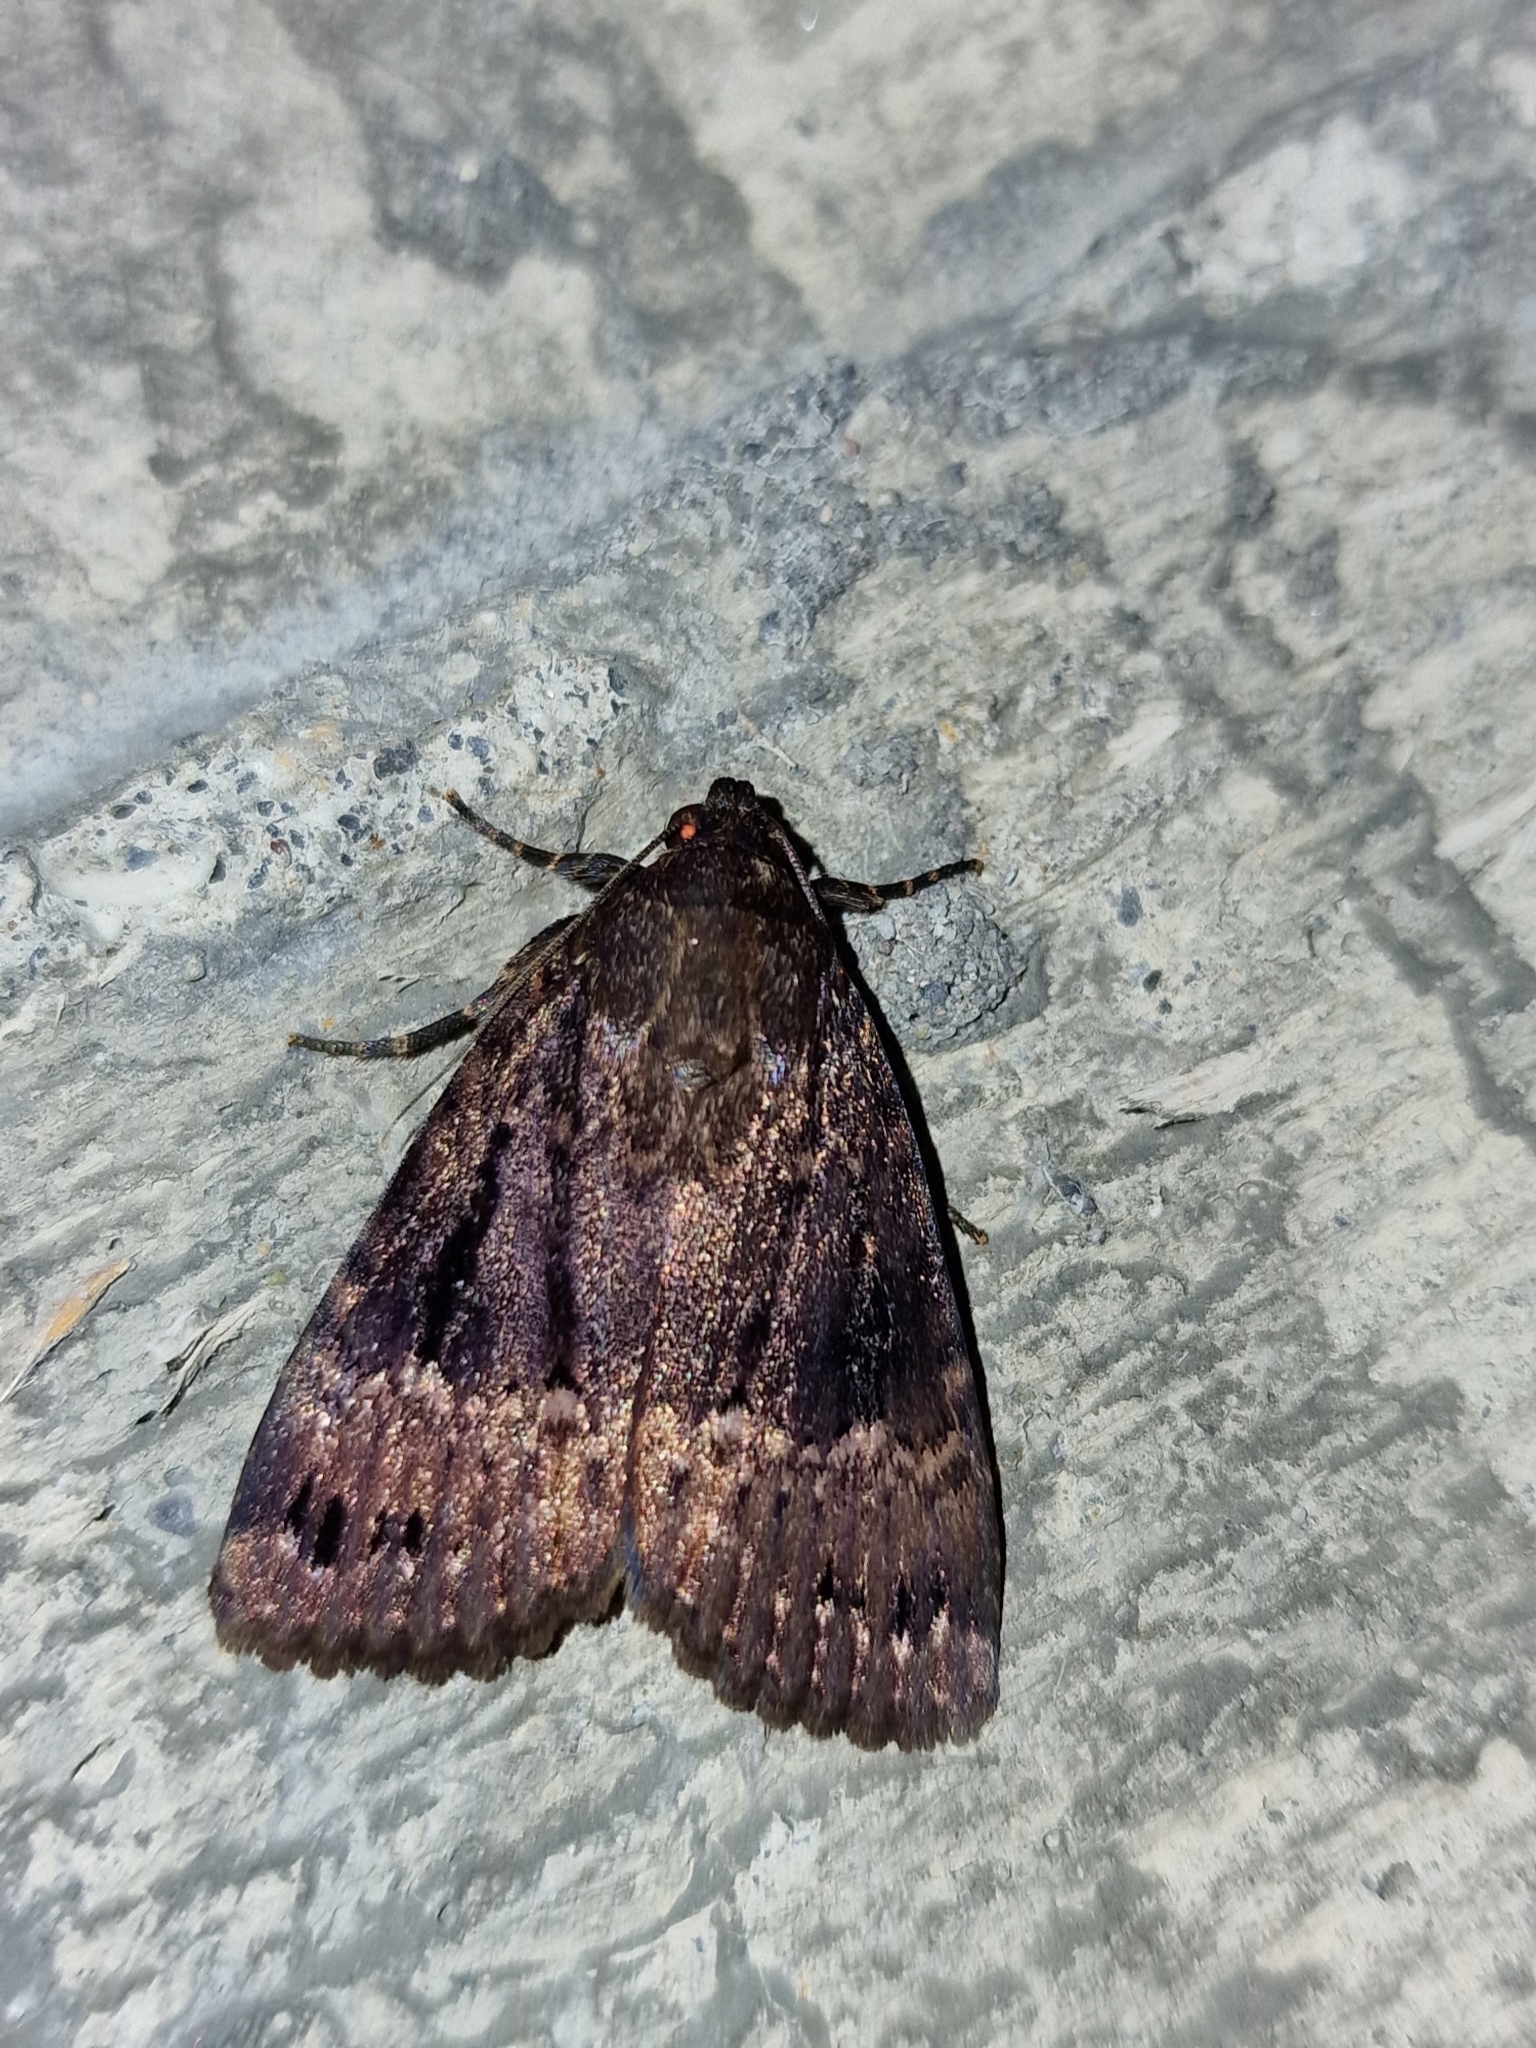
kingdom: Animalia
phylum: Arthropoda
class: Insecta
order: Lepidoptera
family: Noctuidae
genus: Amphipyra
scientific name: Amphipyra pyramidea
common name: Copper underwing
